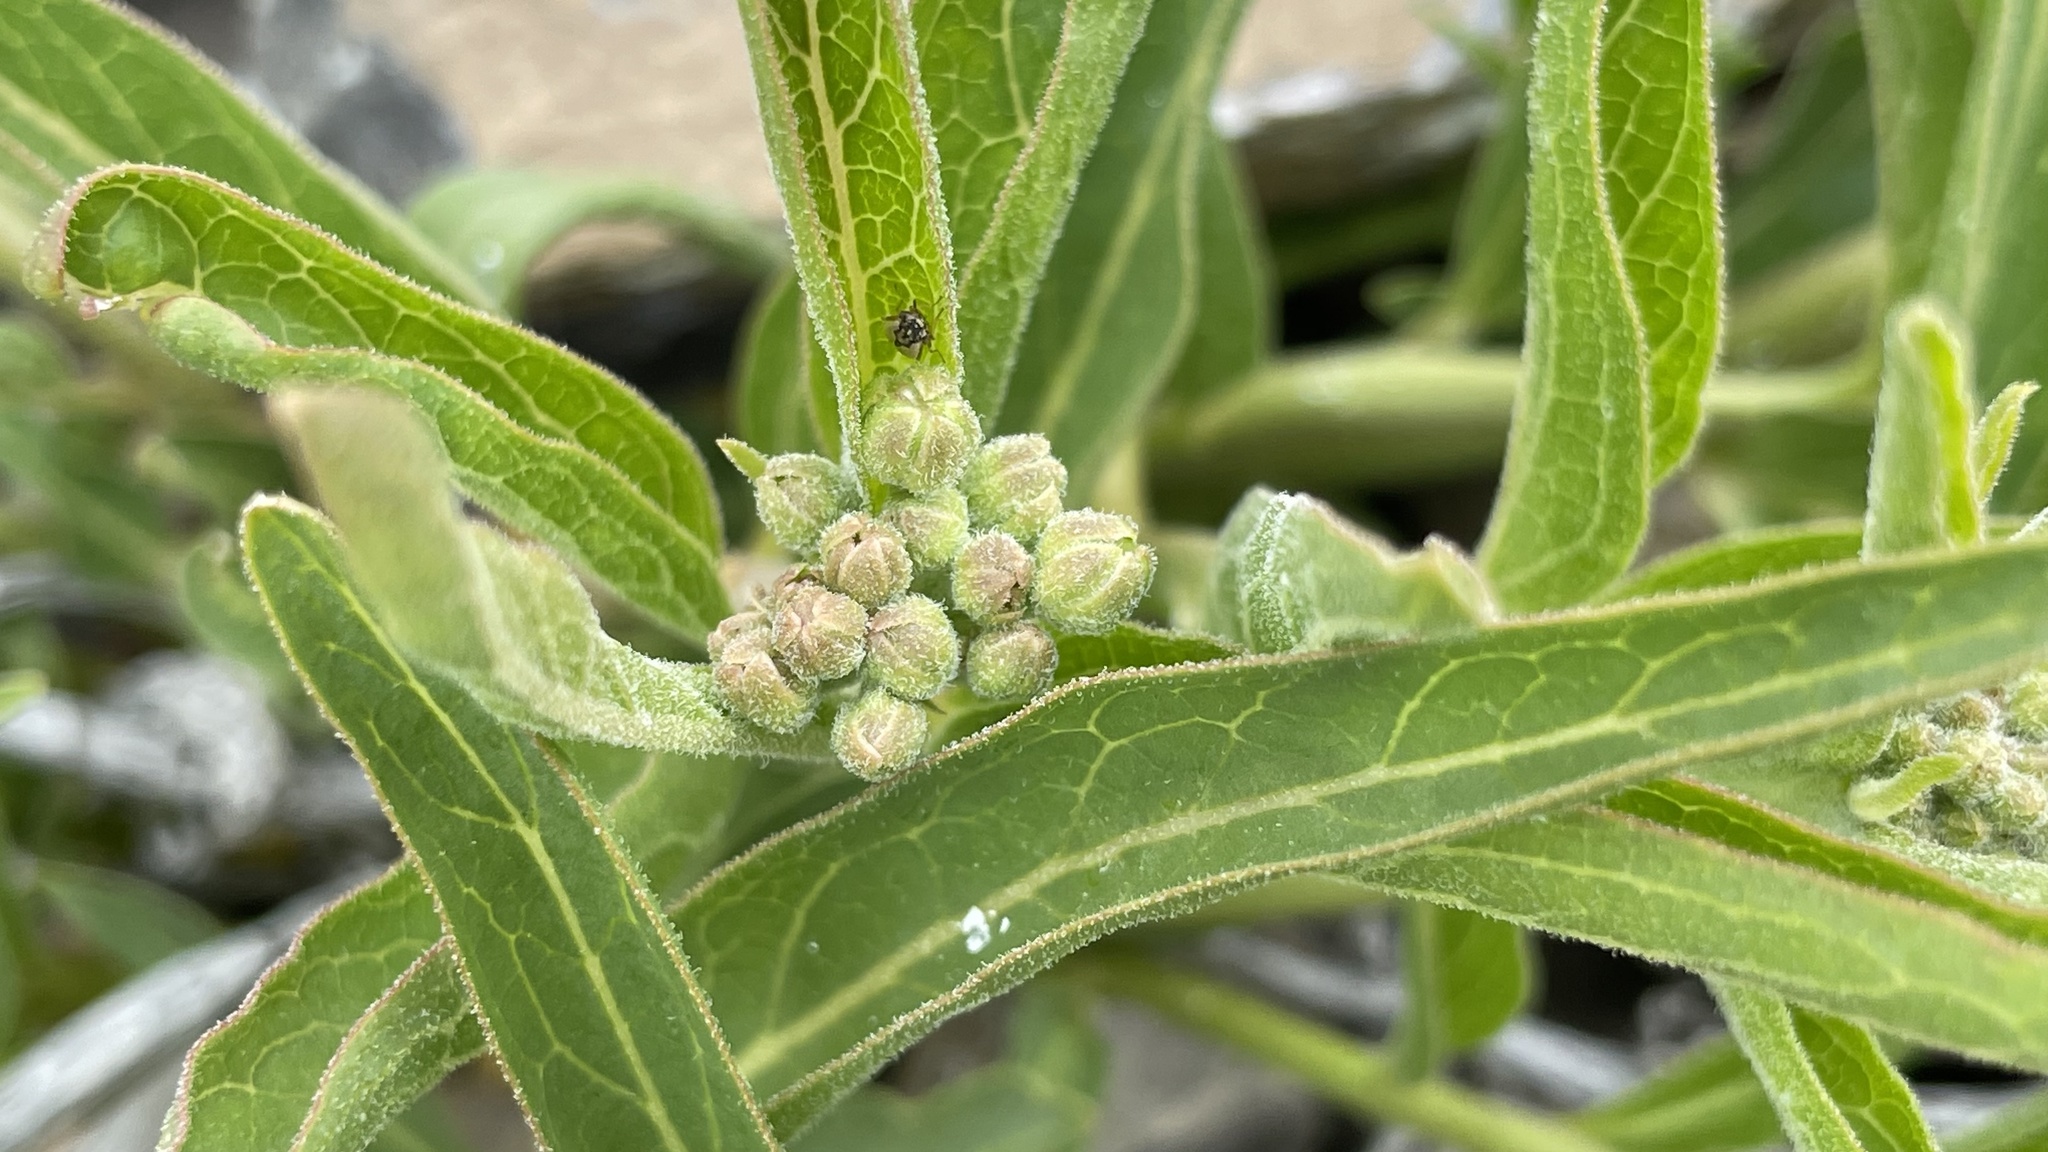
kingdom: Plantae
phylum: Tracheophyta
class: Magnoliopsida
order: Gentianales
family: Apocynaceae
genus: Asclepias
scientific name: Asclepias asperula
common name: Antelope horns
